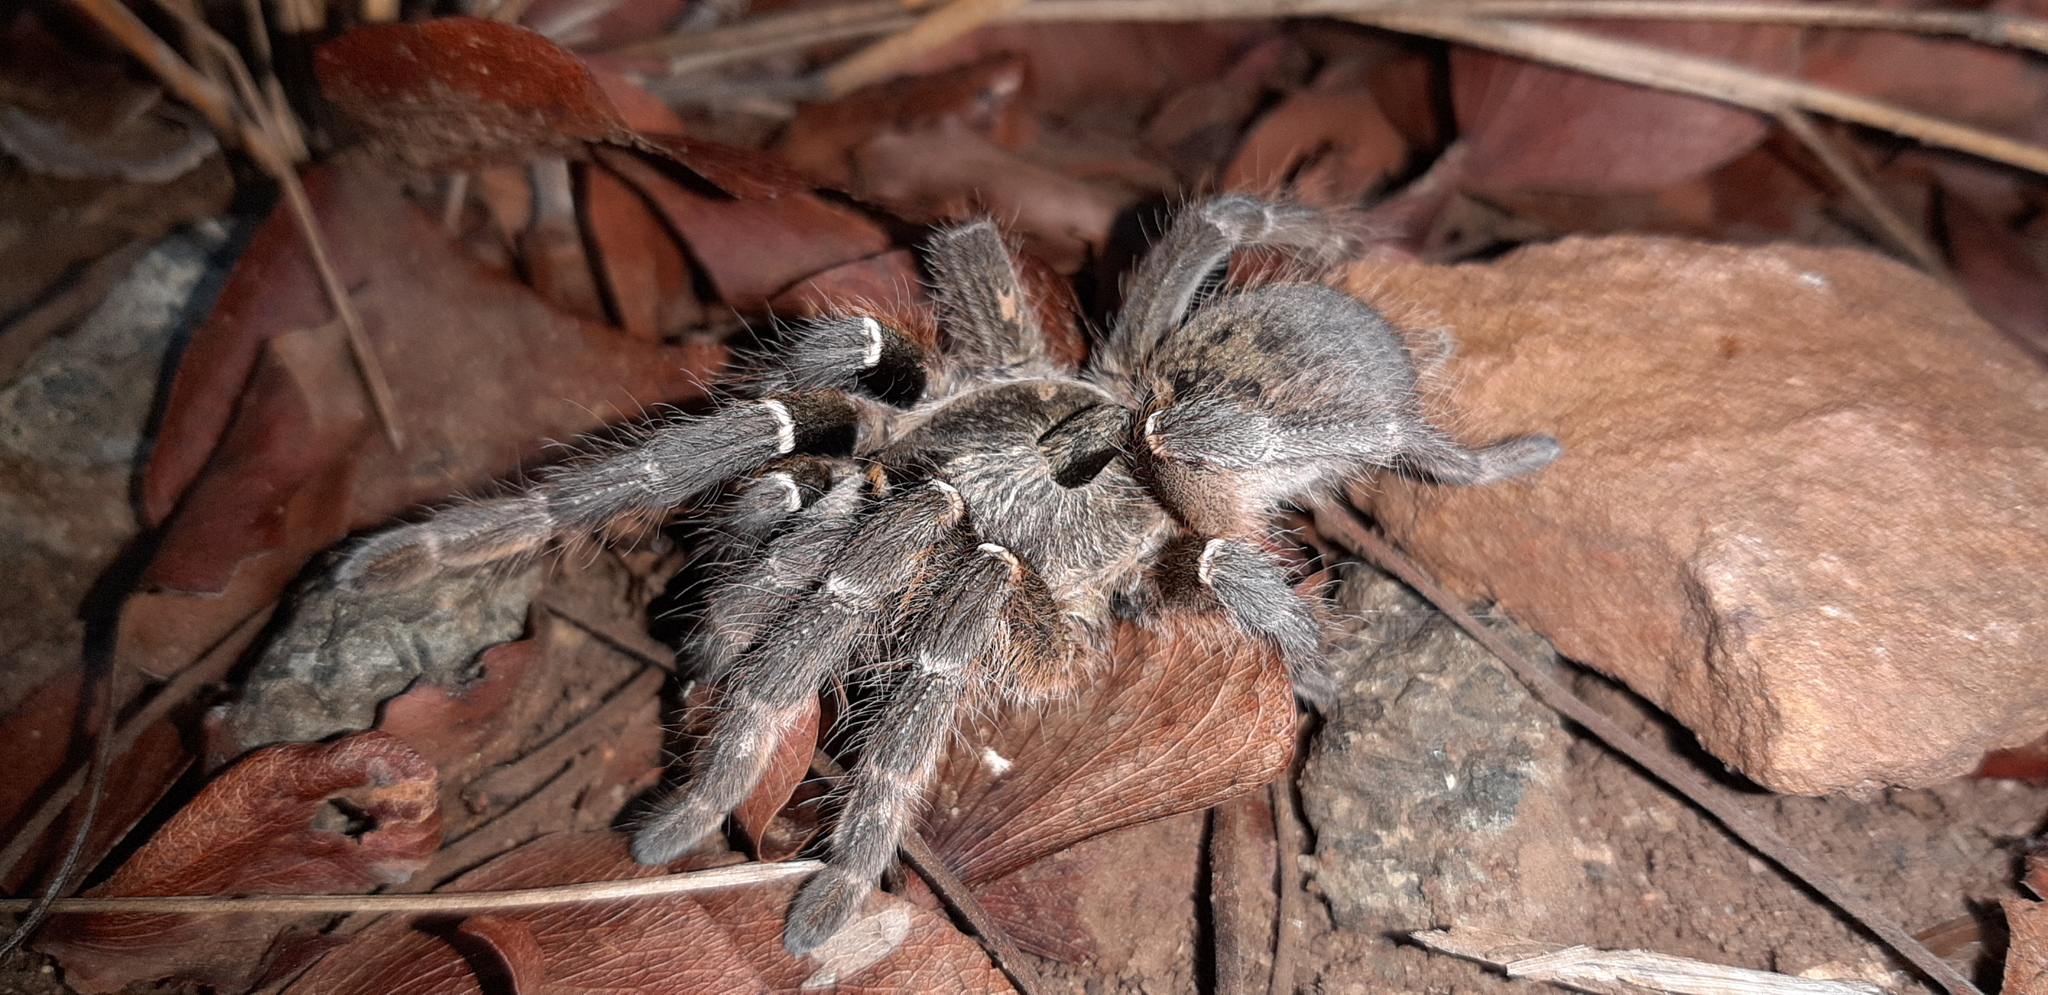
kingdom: Animalia
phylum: Arthropoda
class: Arachnida
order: Araneae
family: Theraphosidae
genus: Ceratogyrus
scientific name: Ceratogyrus darlingi
